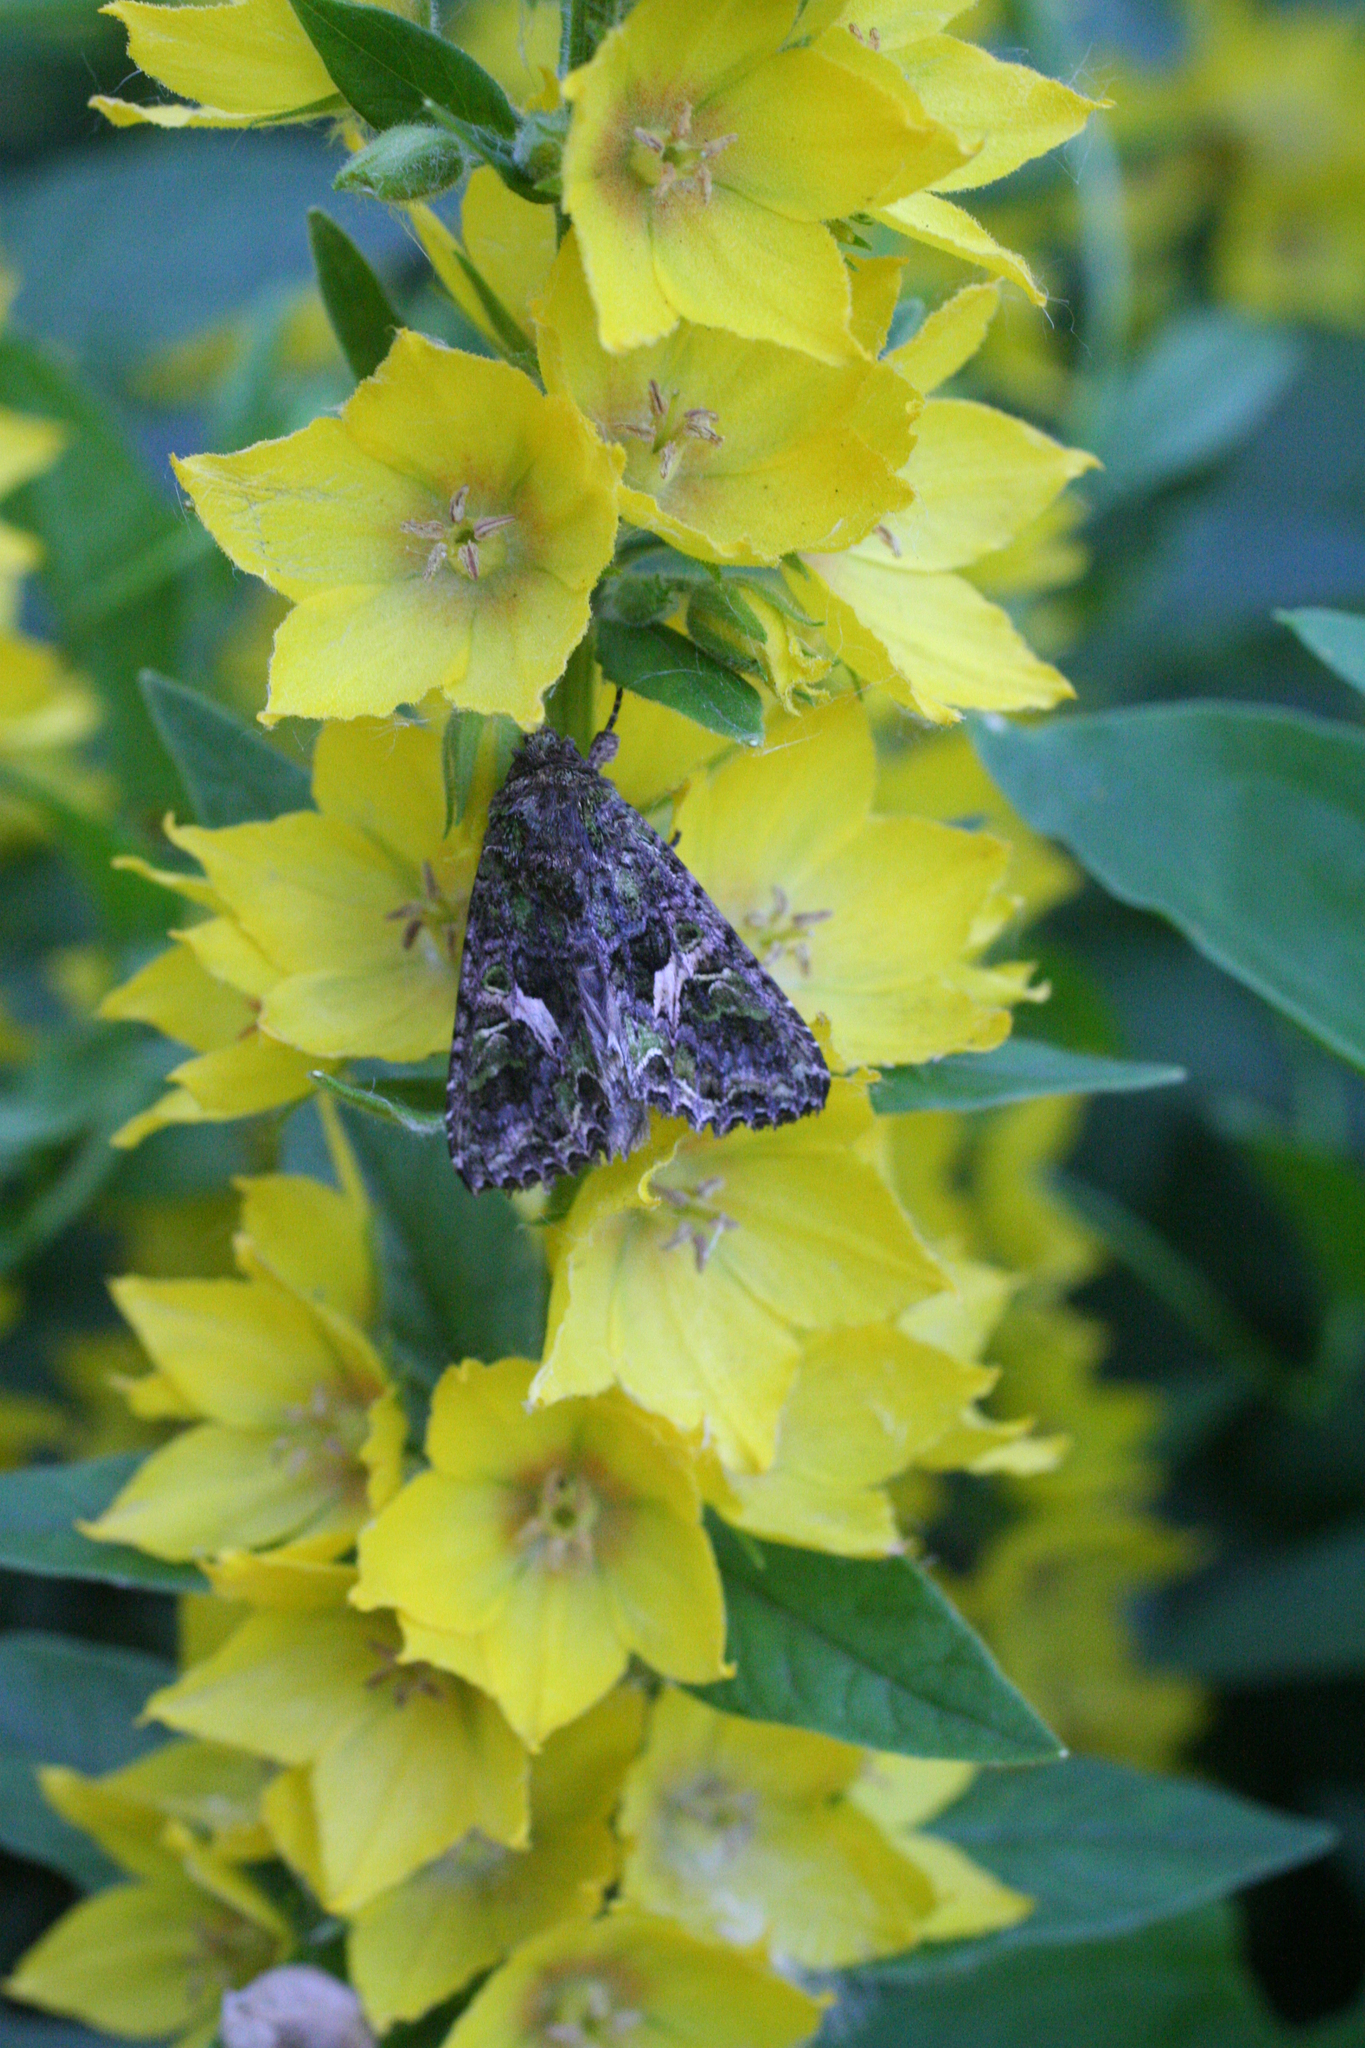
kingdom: Animalia
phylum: Arthropoda
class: Insecta
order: Lepidoptera
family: Noctuidae
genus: Trachea
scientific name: Trachea atriplicis
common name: Orache moth
